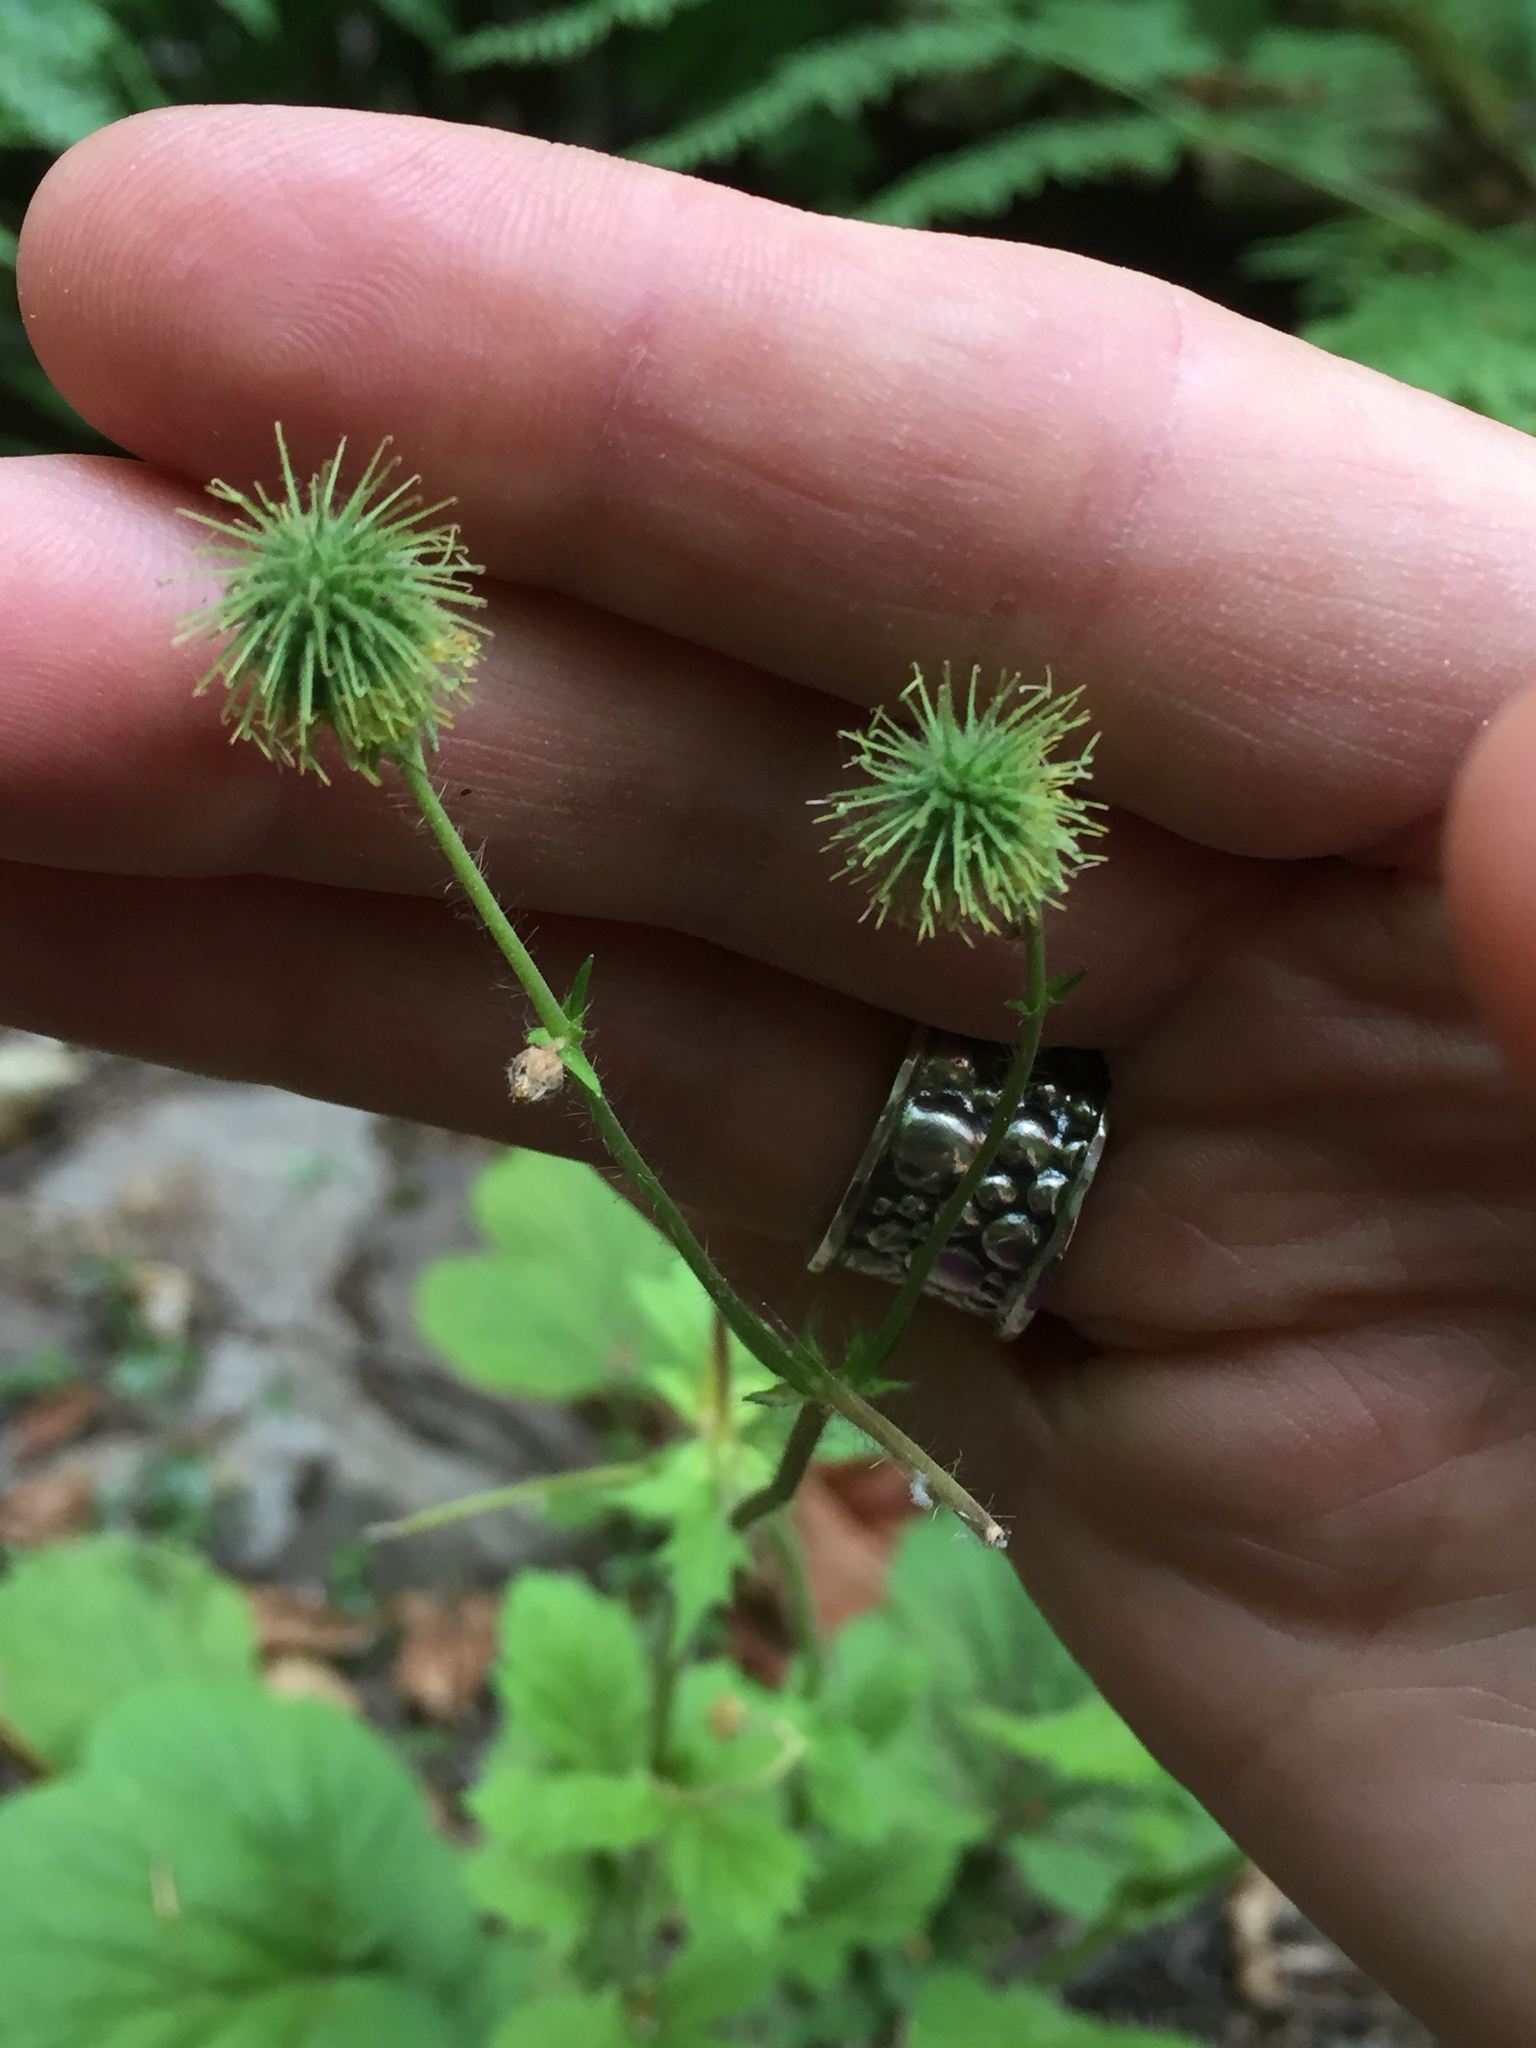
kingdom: Plantae
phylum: Tracheophyta
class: Magnoliopsida
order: Rosales
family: Rosaceae
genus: Geum
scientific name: Geum macrophyllum
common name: Large-leaved avens
